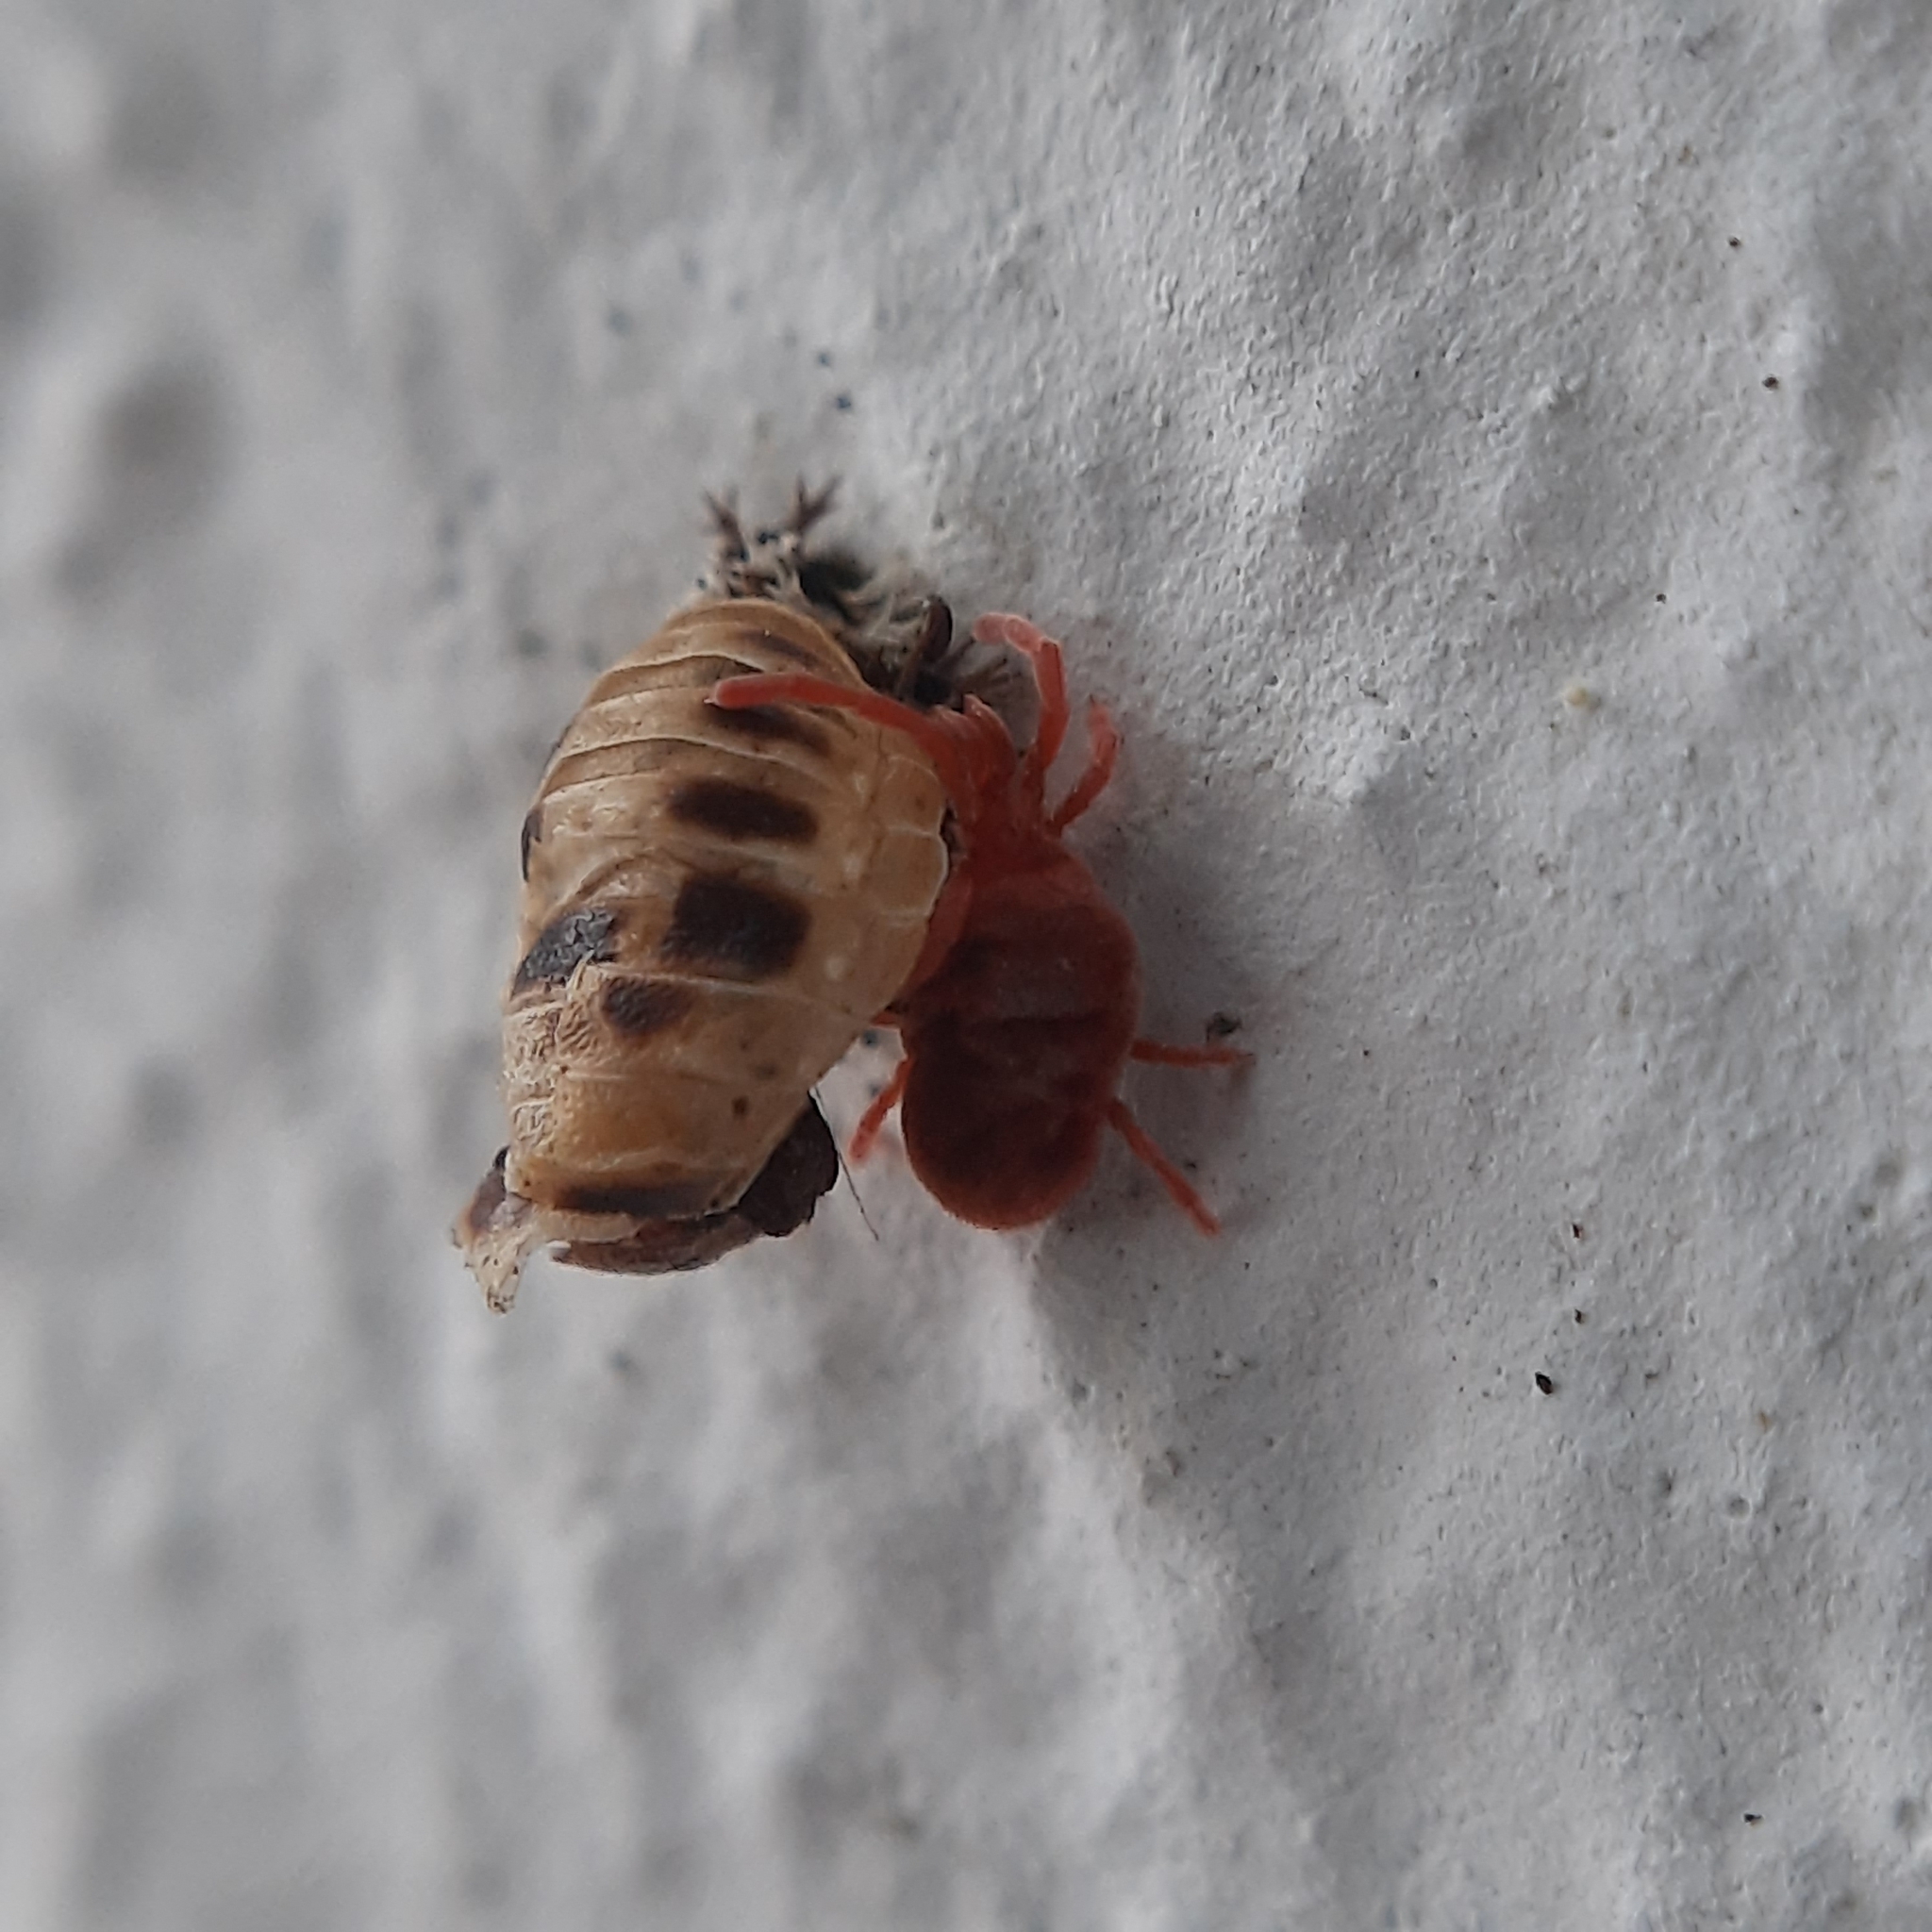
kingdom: Animalia
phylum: Arthropoda
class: Arachnida
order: Trombidiformes
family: Trombidiidae
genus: Allothrombium
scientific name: Allothrombium
